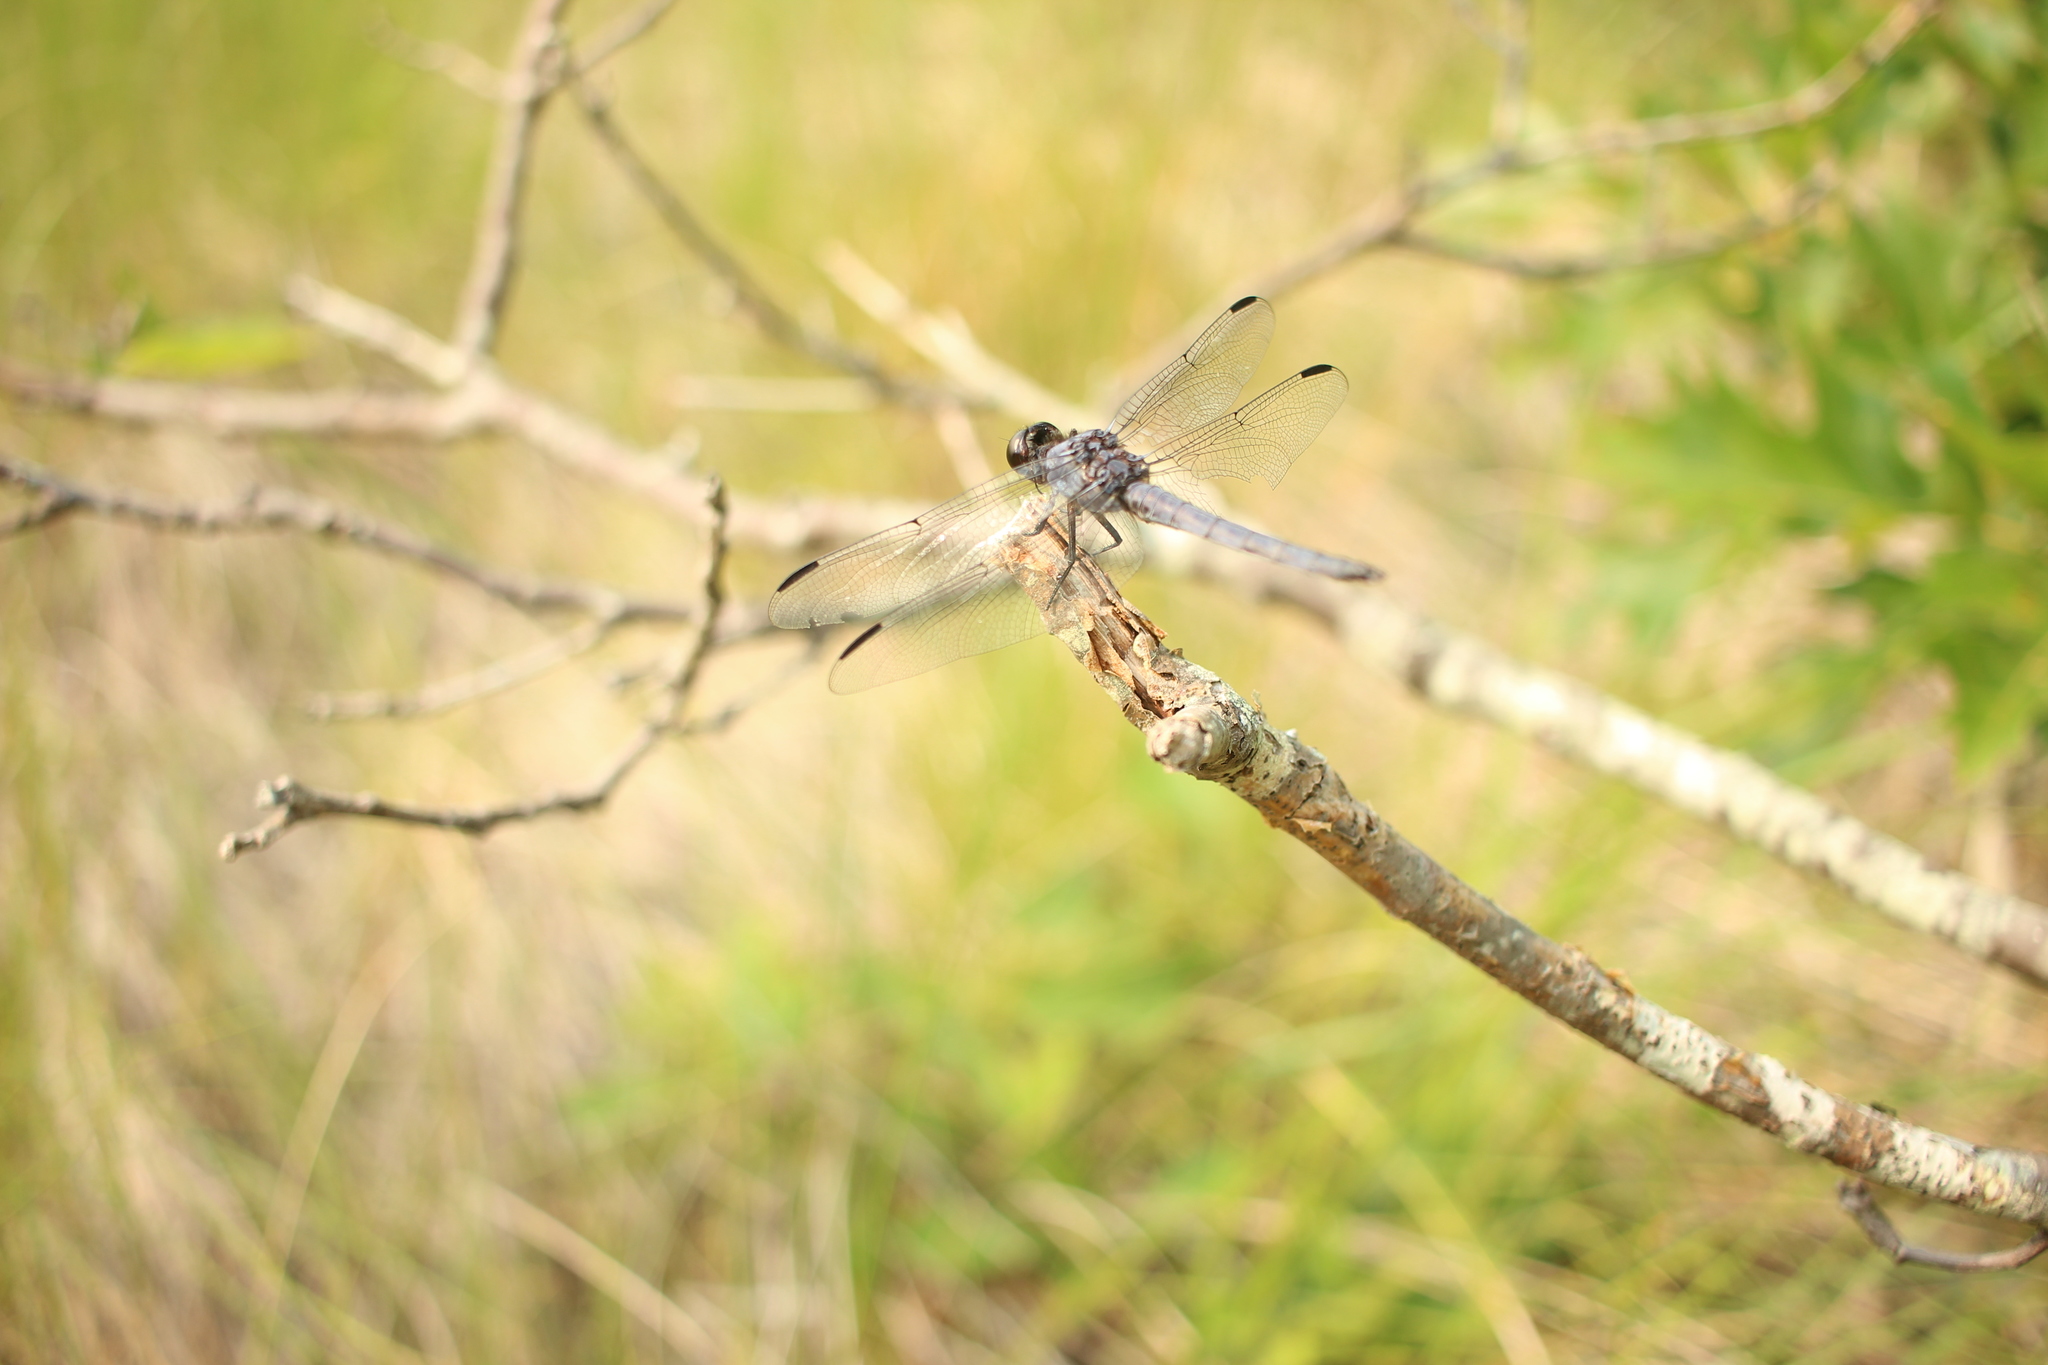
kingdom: Animalia
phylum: Arthropoda
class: Insecta
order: Odonata
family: Libellulidae
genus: Libellula
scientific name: Libellula incesta
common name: Slaty skimmer
